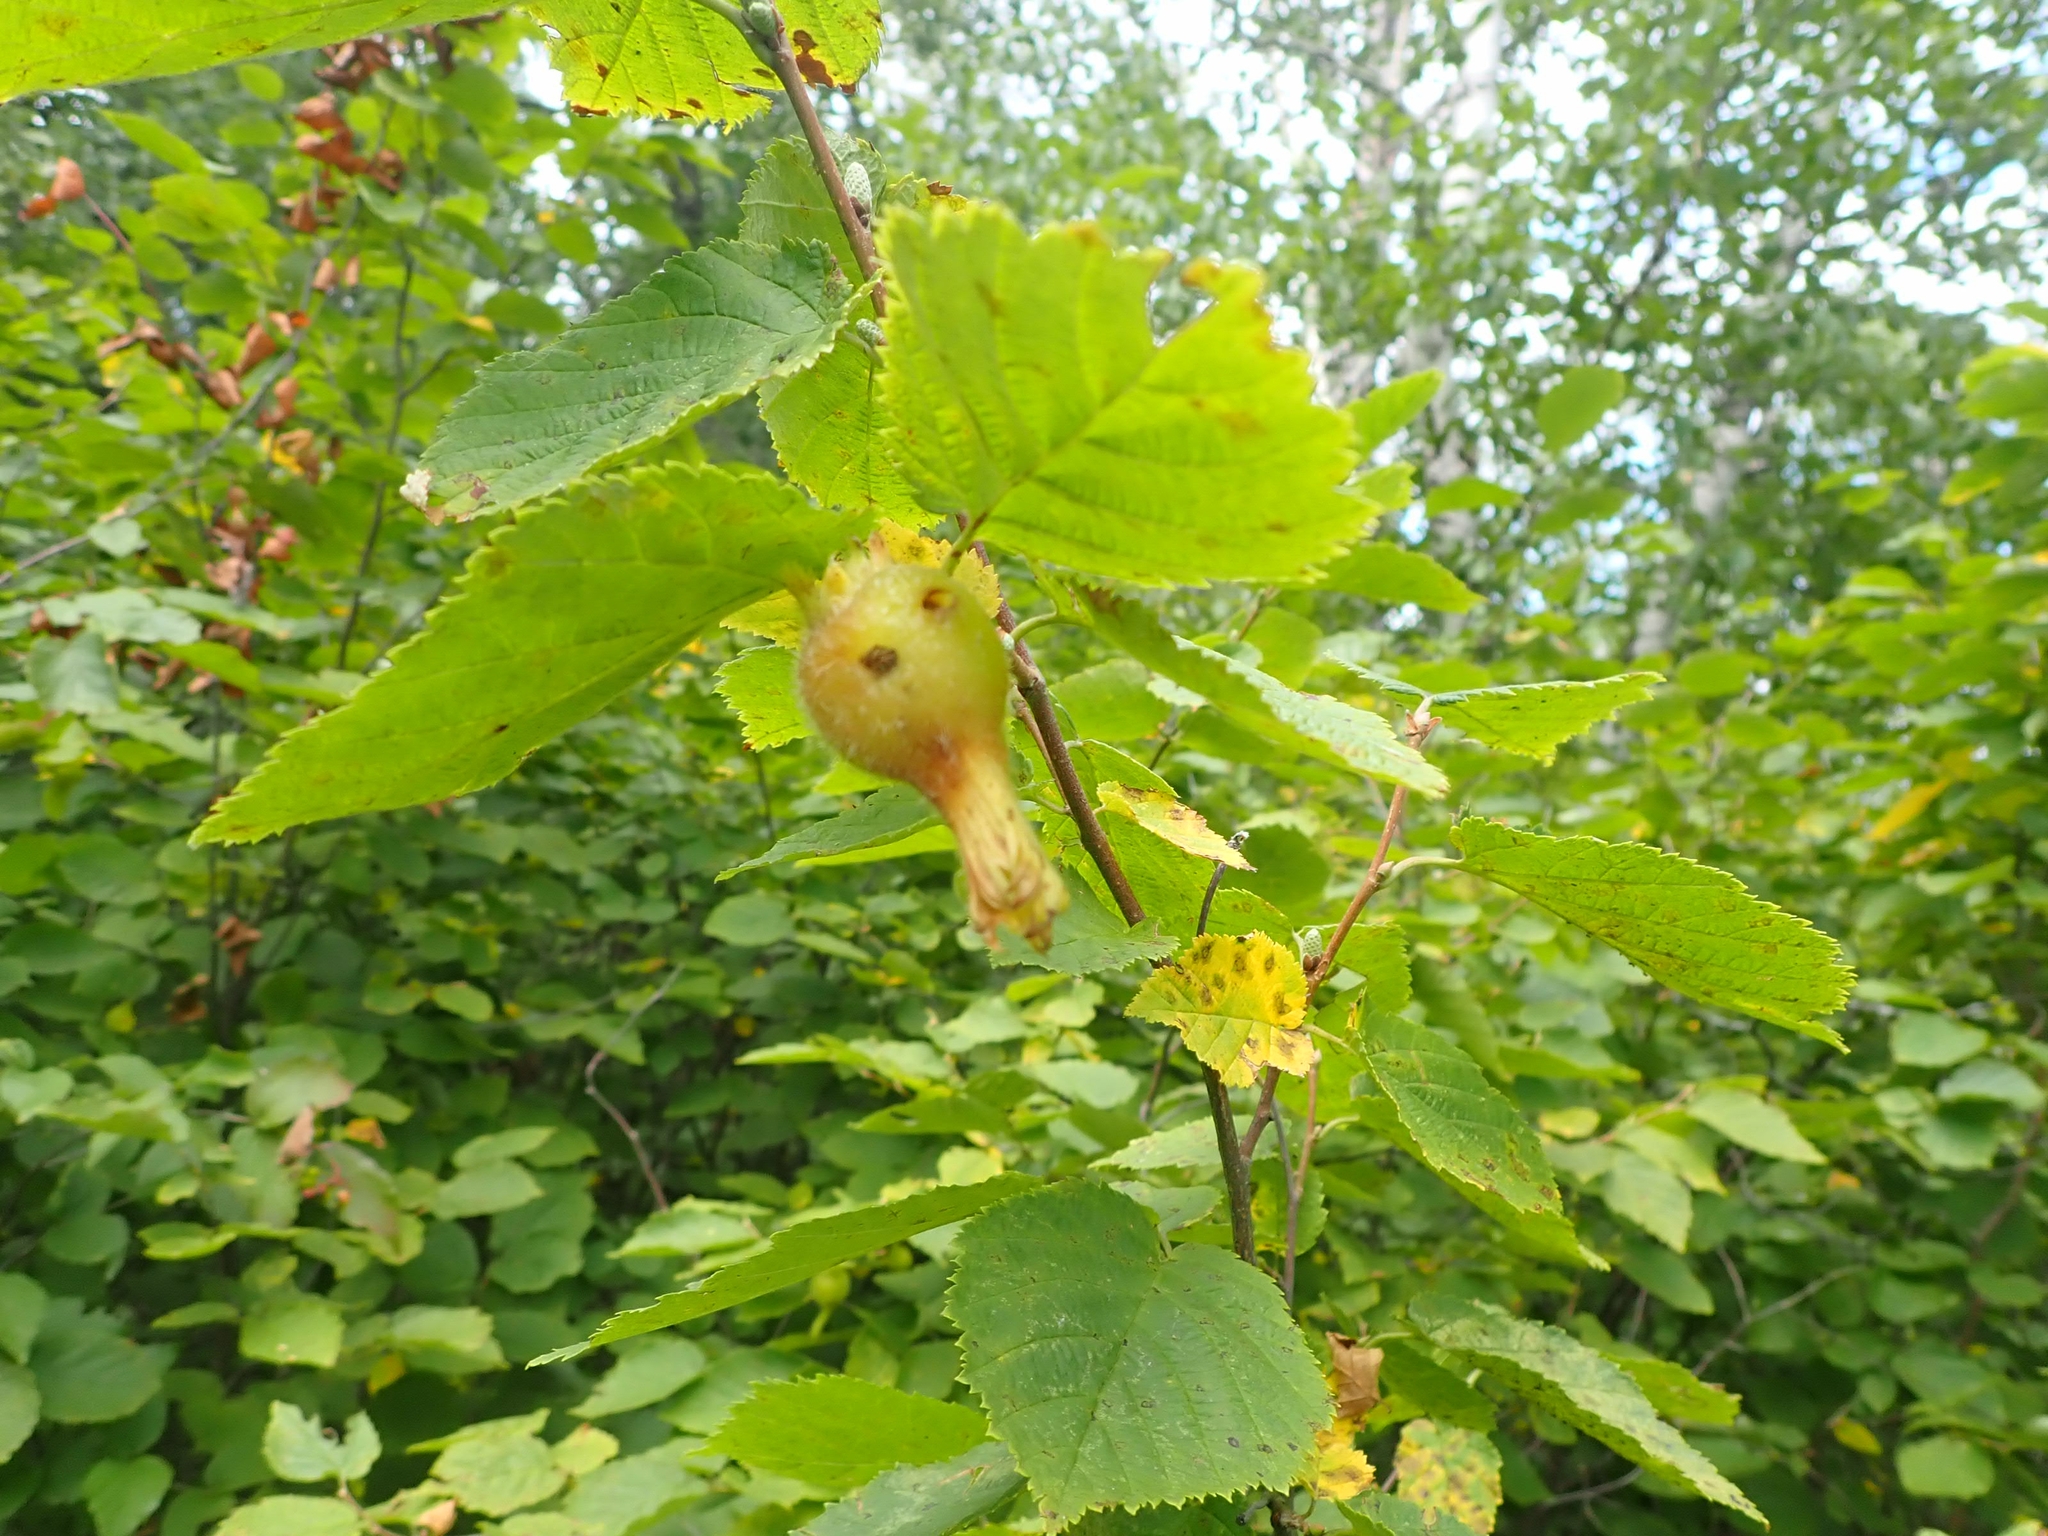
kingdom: Plantae
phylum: Tracheophyta
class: Magnoliopsida
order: Fagales
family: Betulaceae
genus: Corylus
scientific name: Corylus cornuta
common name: Beaked hazel
